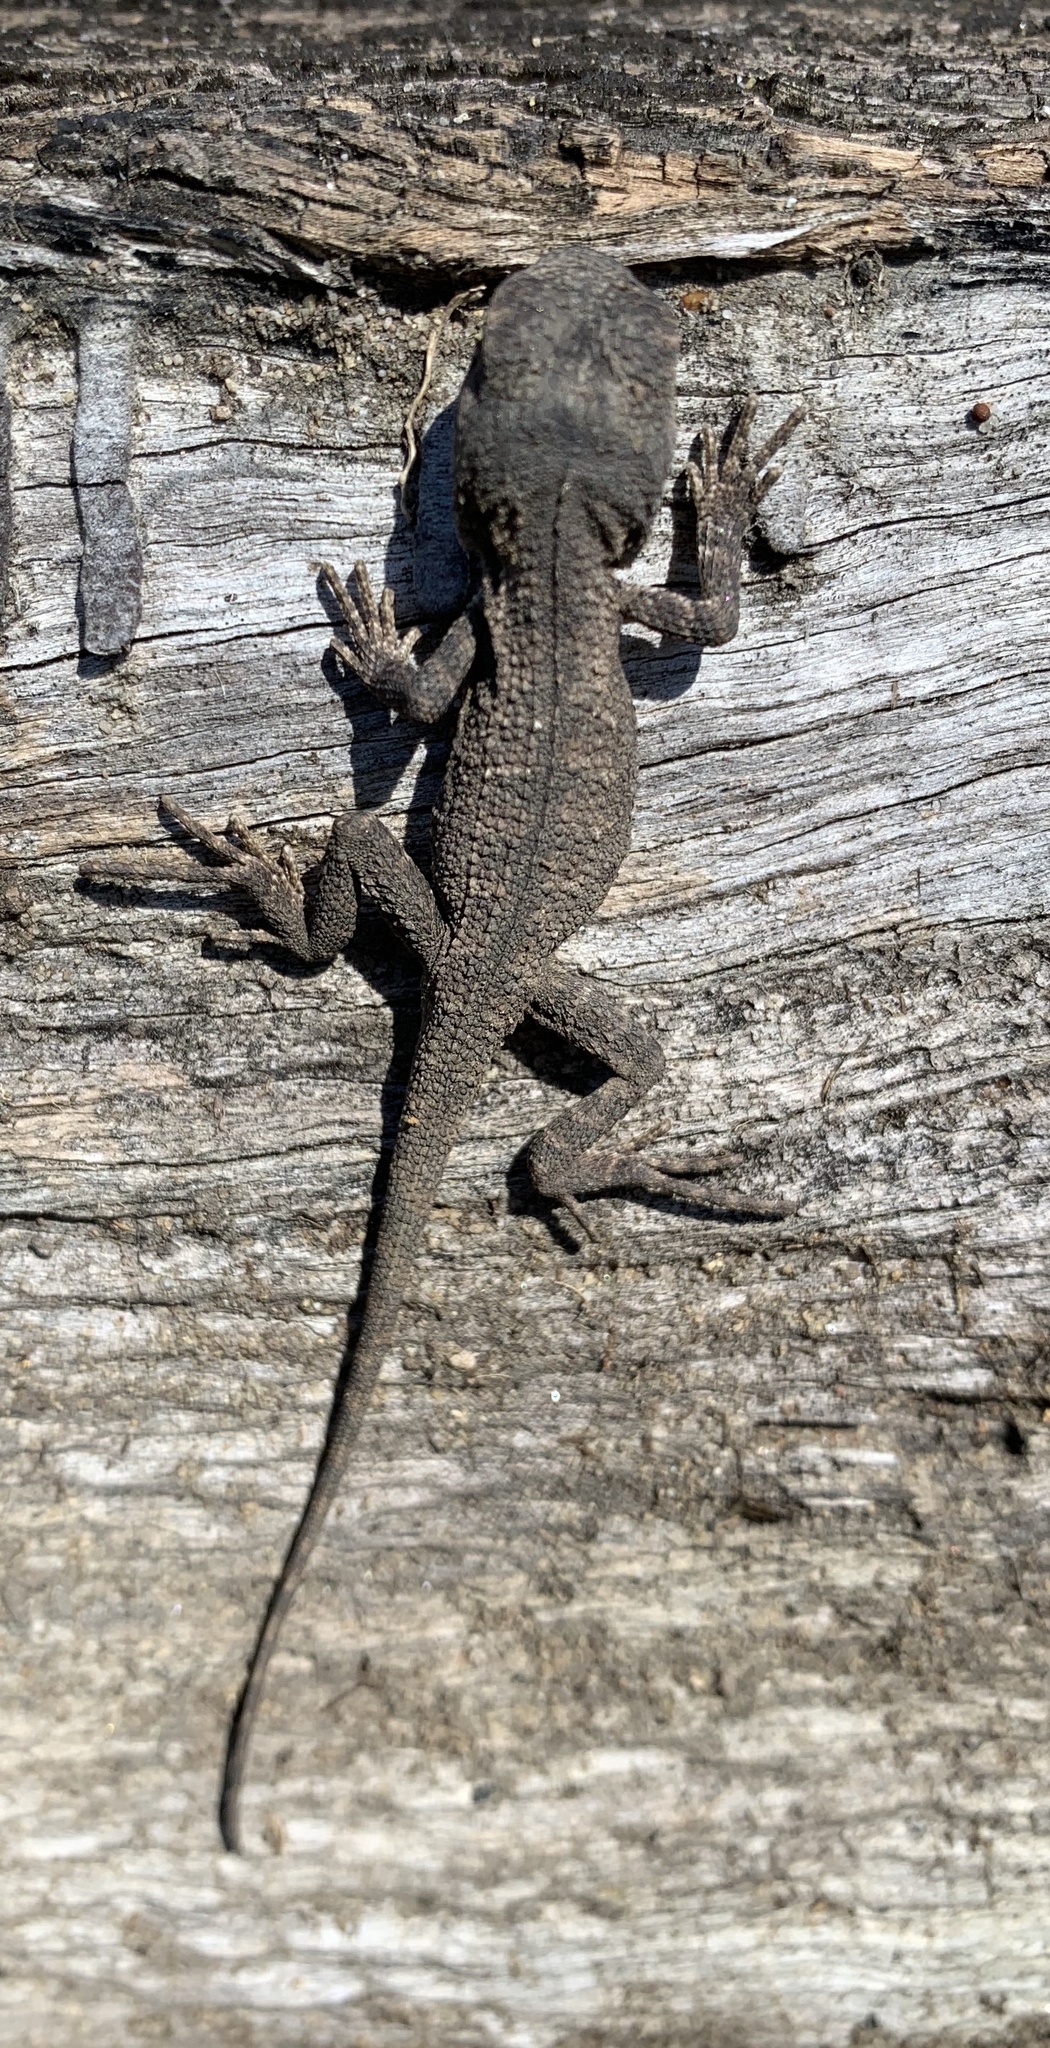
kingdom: Animalia
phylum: Chordata
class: Squamata
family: Agamidae
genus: Amphibolurus
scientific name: Amphibolurus muricatus
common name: Jacky lizard
